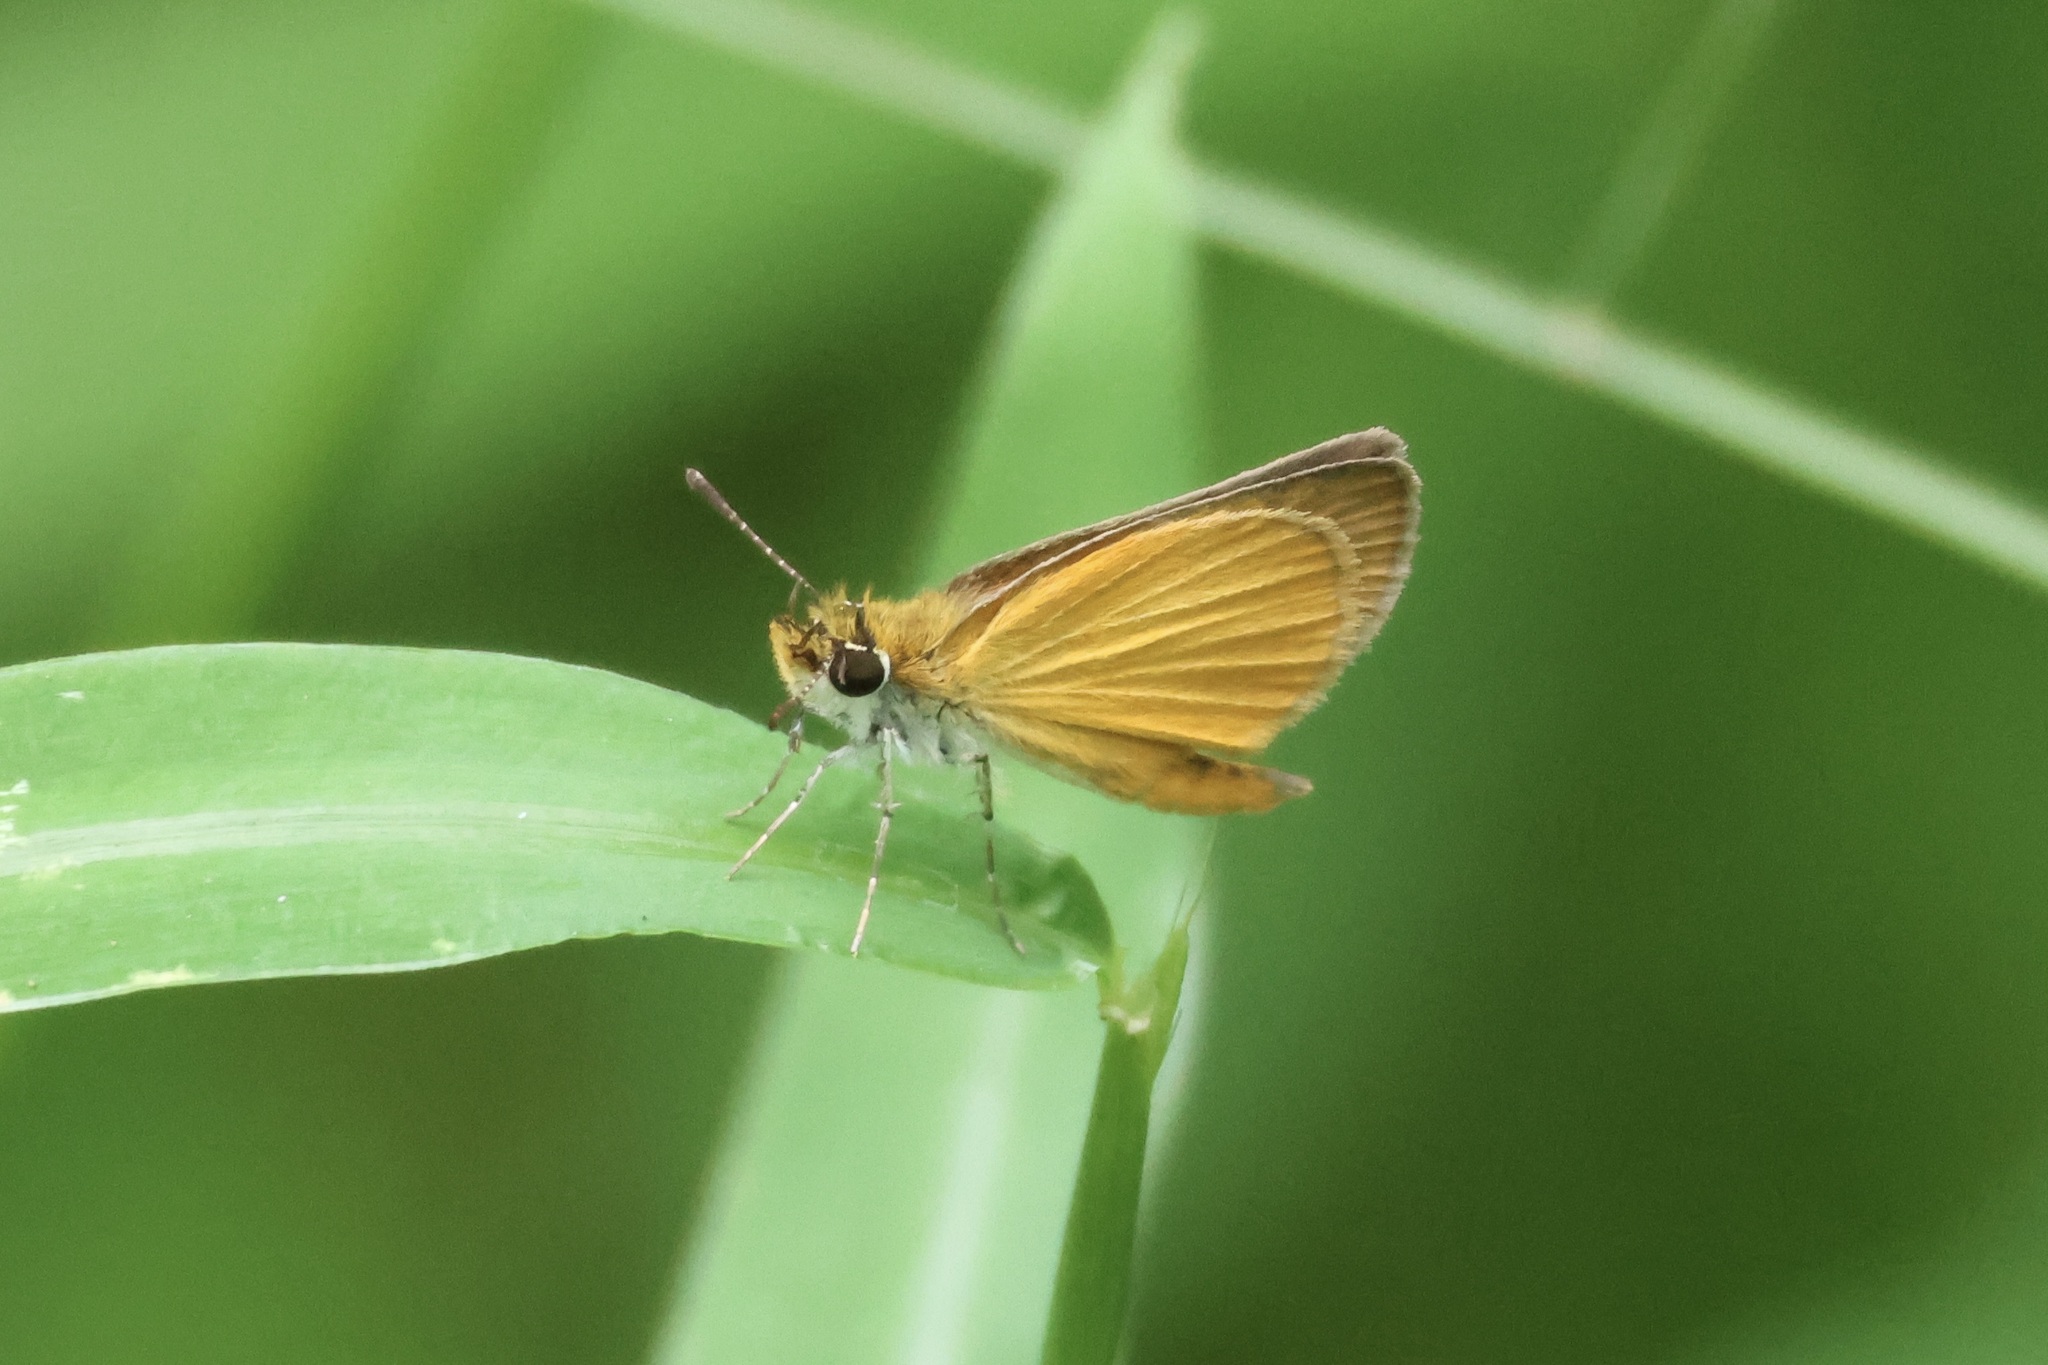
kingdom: Animalia
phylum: Arthropoda
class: Insecta
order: Lepidoptera
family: Hesperiidae
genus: Ancyloxypha
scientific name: Ancyloxypha numitor
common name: Least skipper
